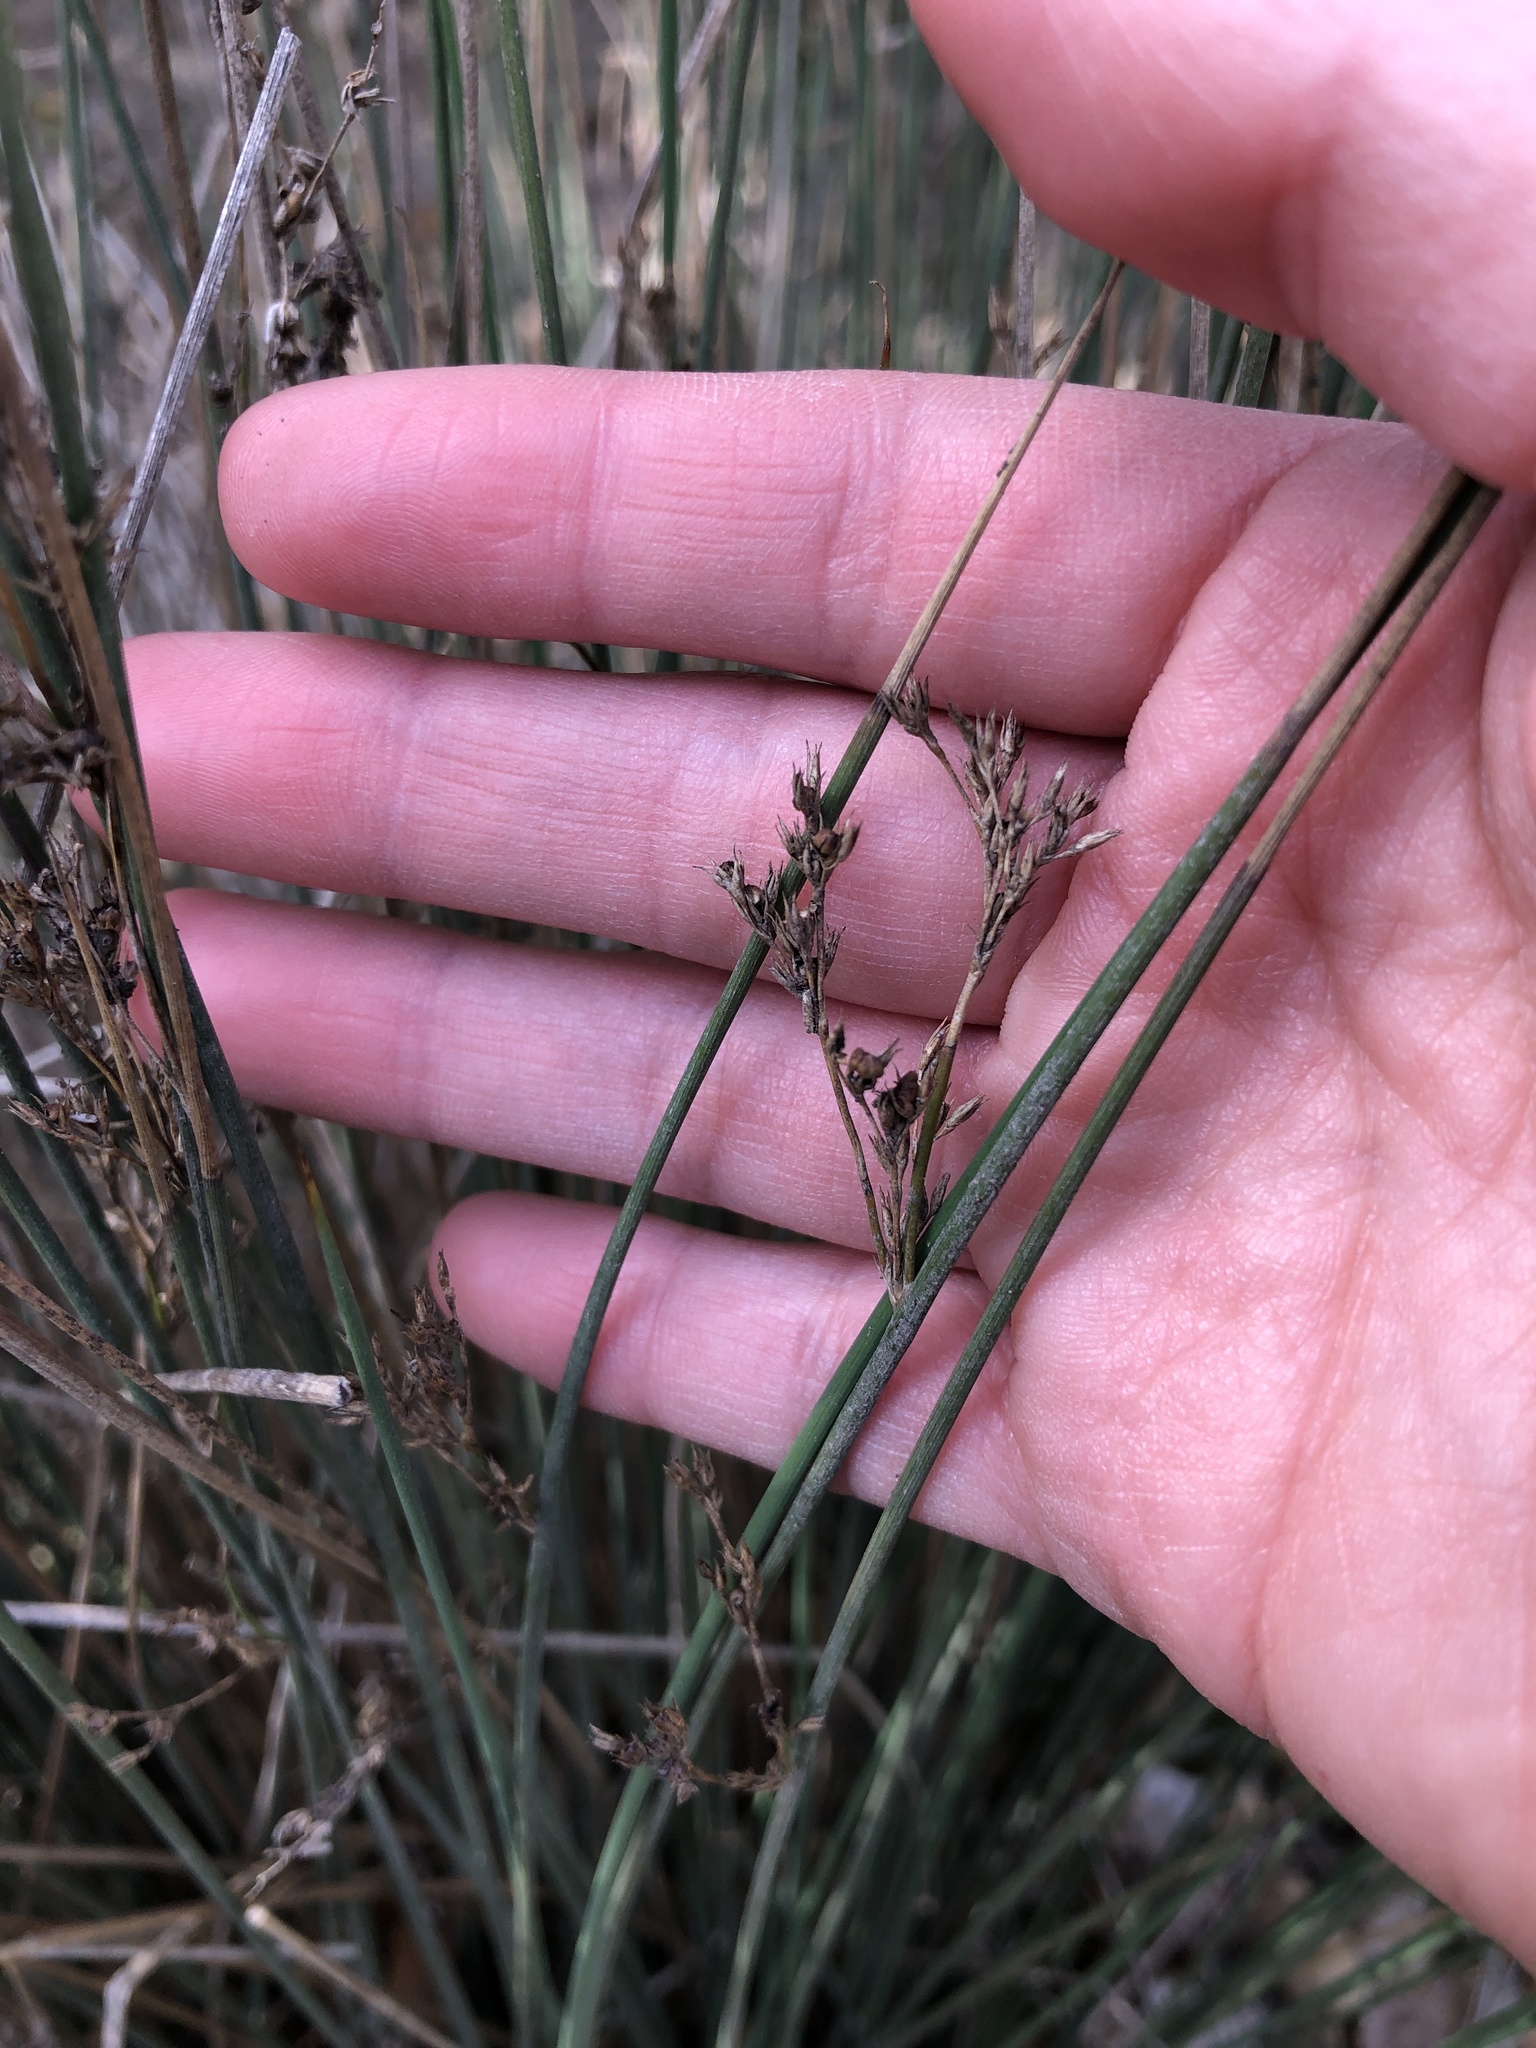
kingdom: Plantae
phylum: Tracheophyta
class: Liliopsida
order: Poales
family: Juncaceae
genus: Juncus
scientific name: Juncus patens
